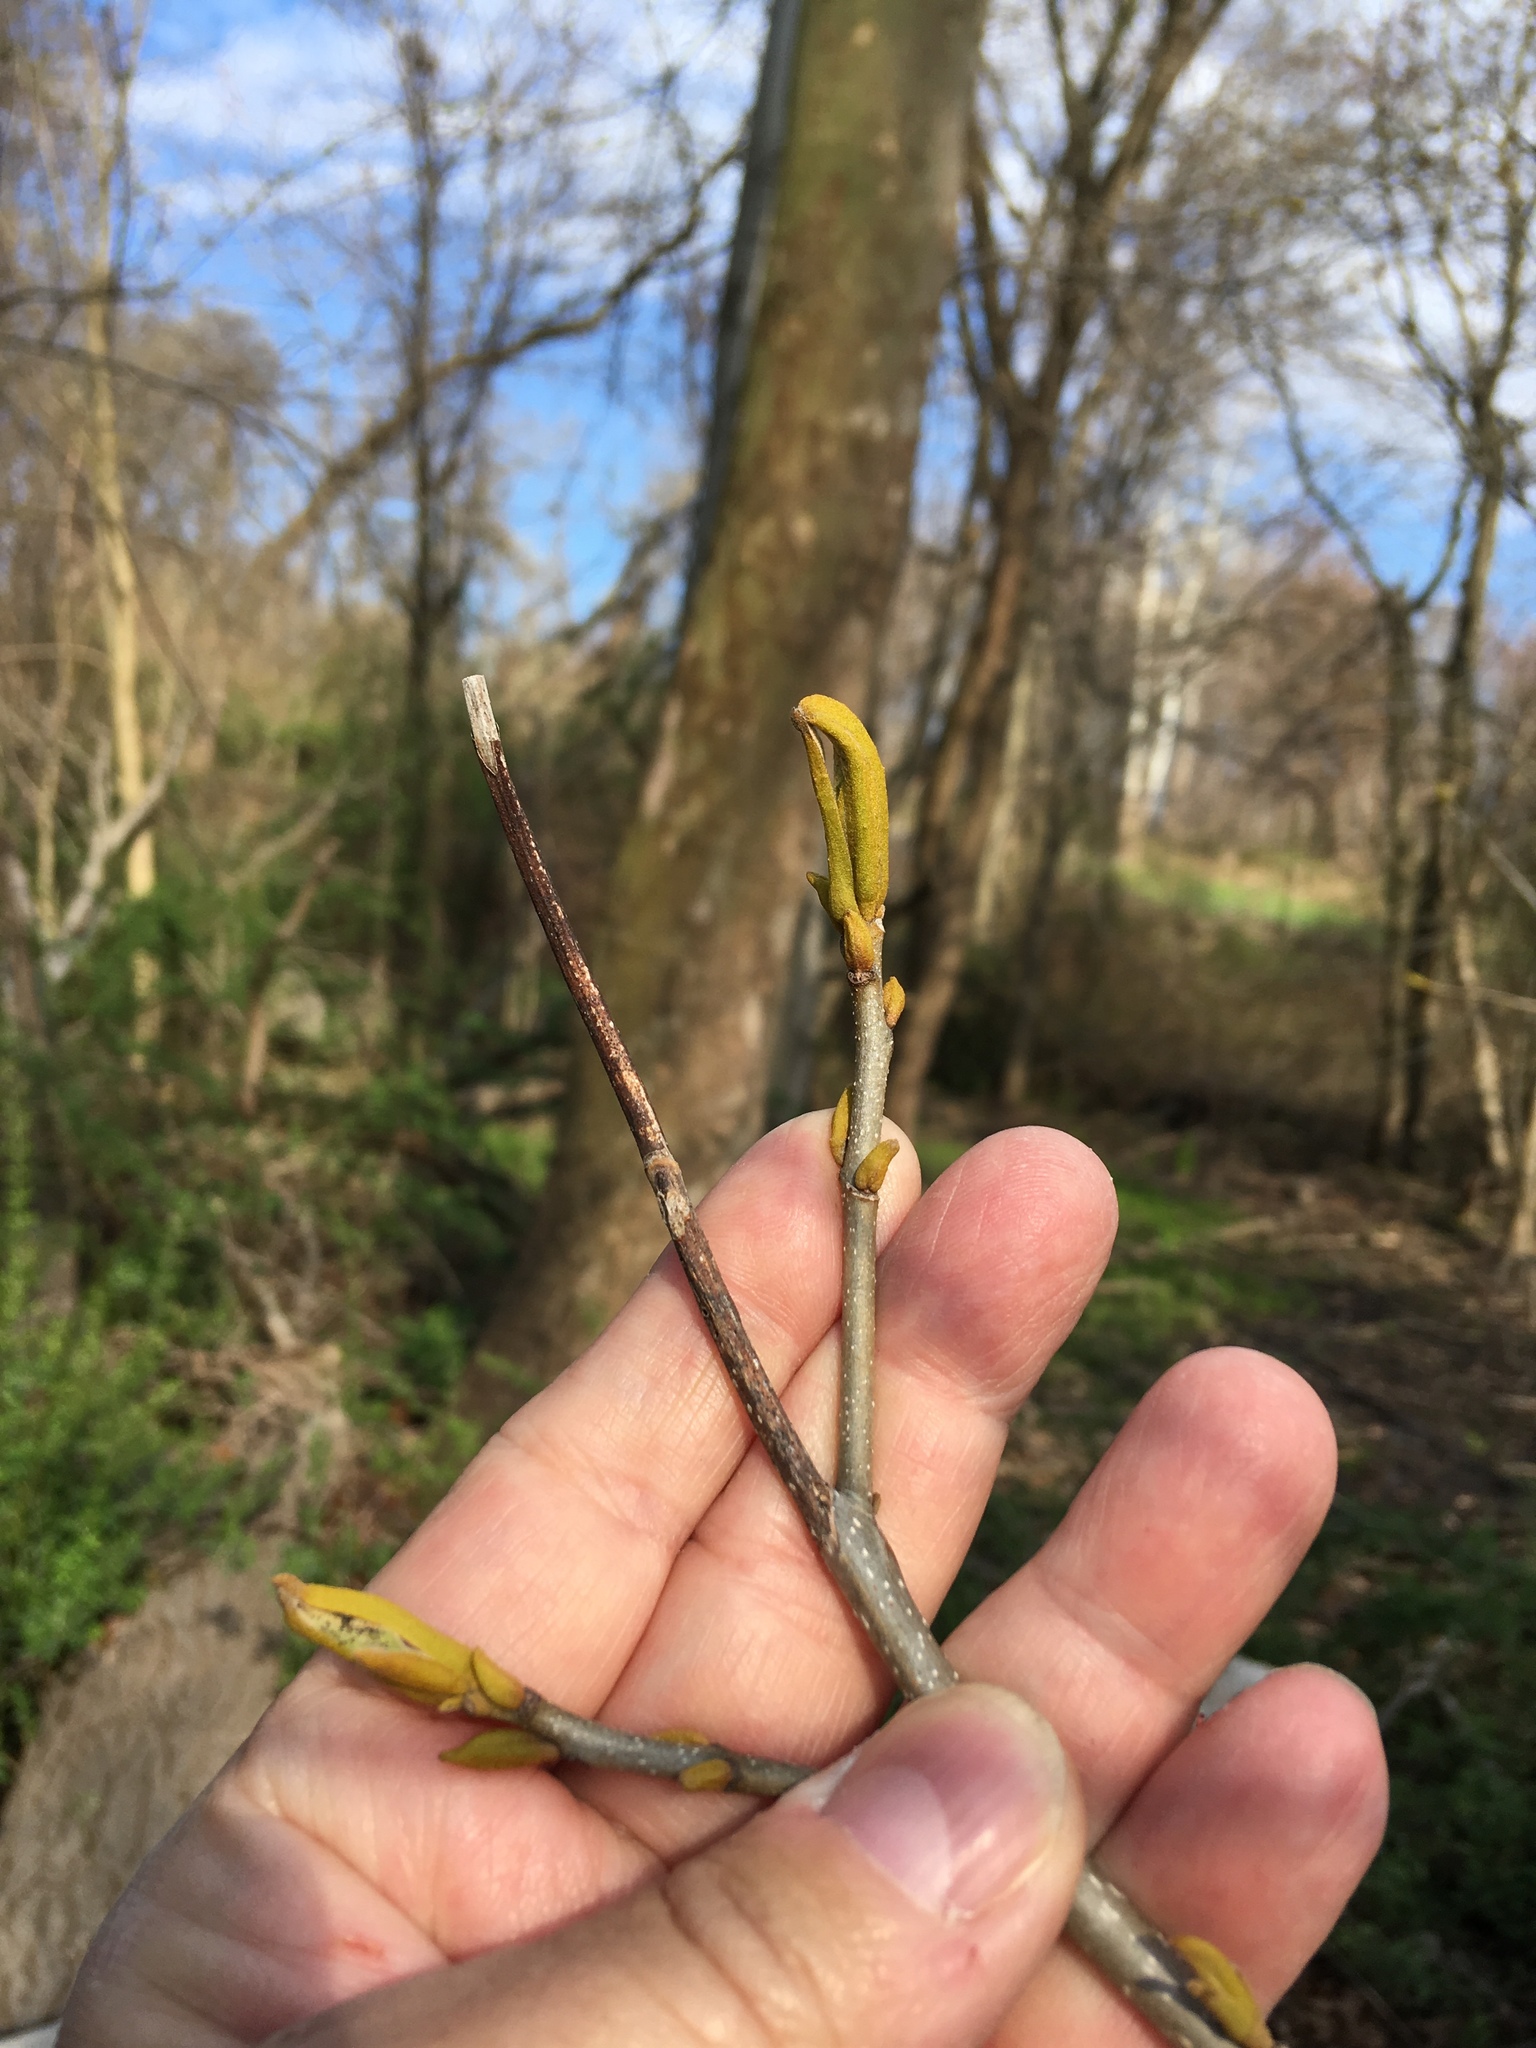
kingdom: Plantae
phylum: Tracheophyta
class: Magnoliopsida
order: Fagales
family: Juglandaceae
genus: Carya
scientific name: Carya cordiformis
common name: Bitternut hickory
